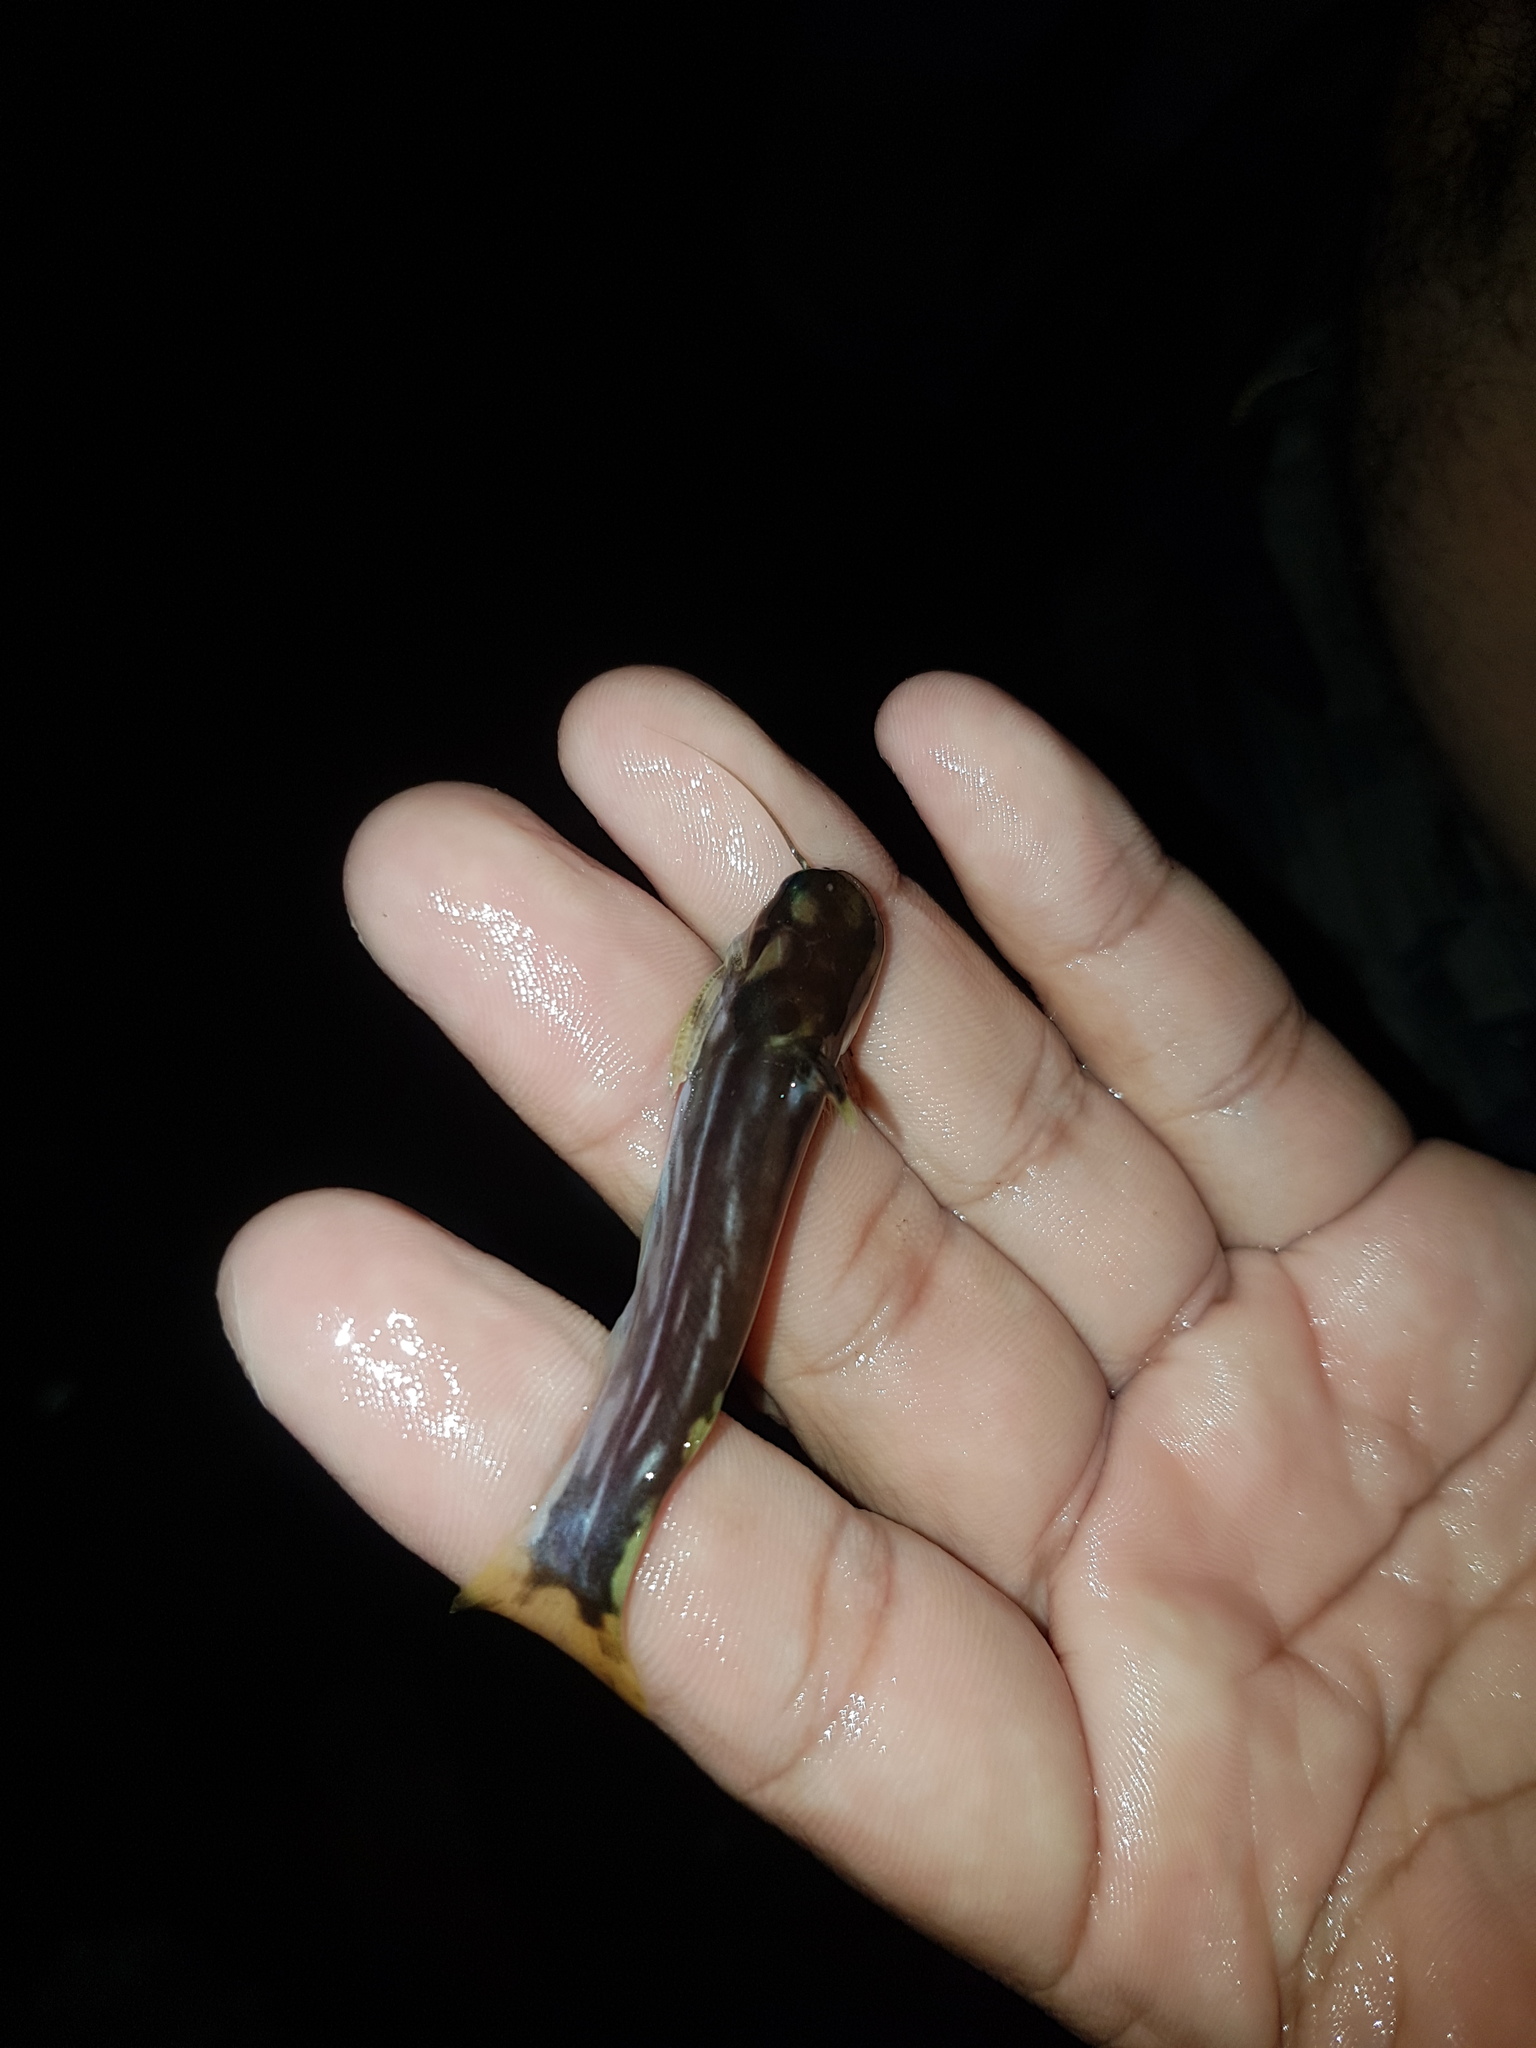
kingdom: Animalia
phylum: Chordata
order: Siluriformes
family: Auchenipteridae
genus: Tatia
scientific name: Tatia intermedia
